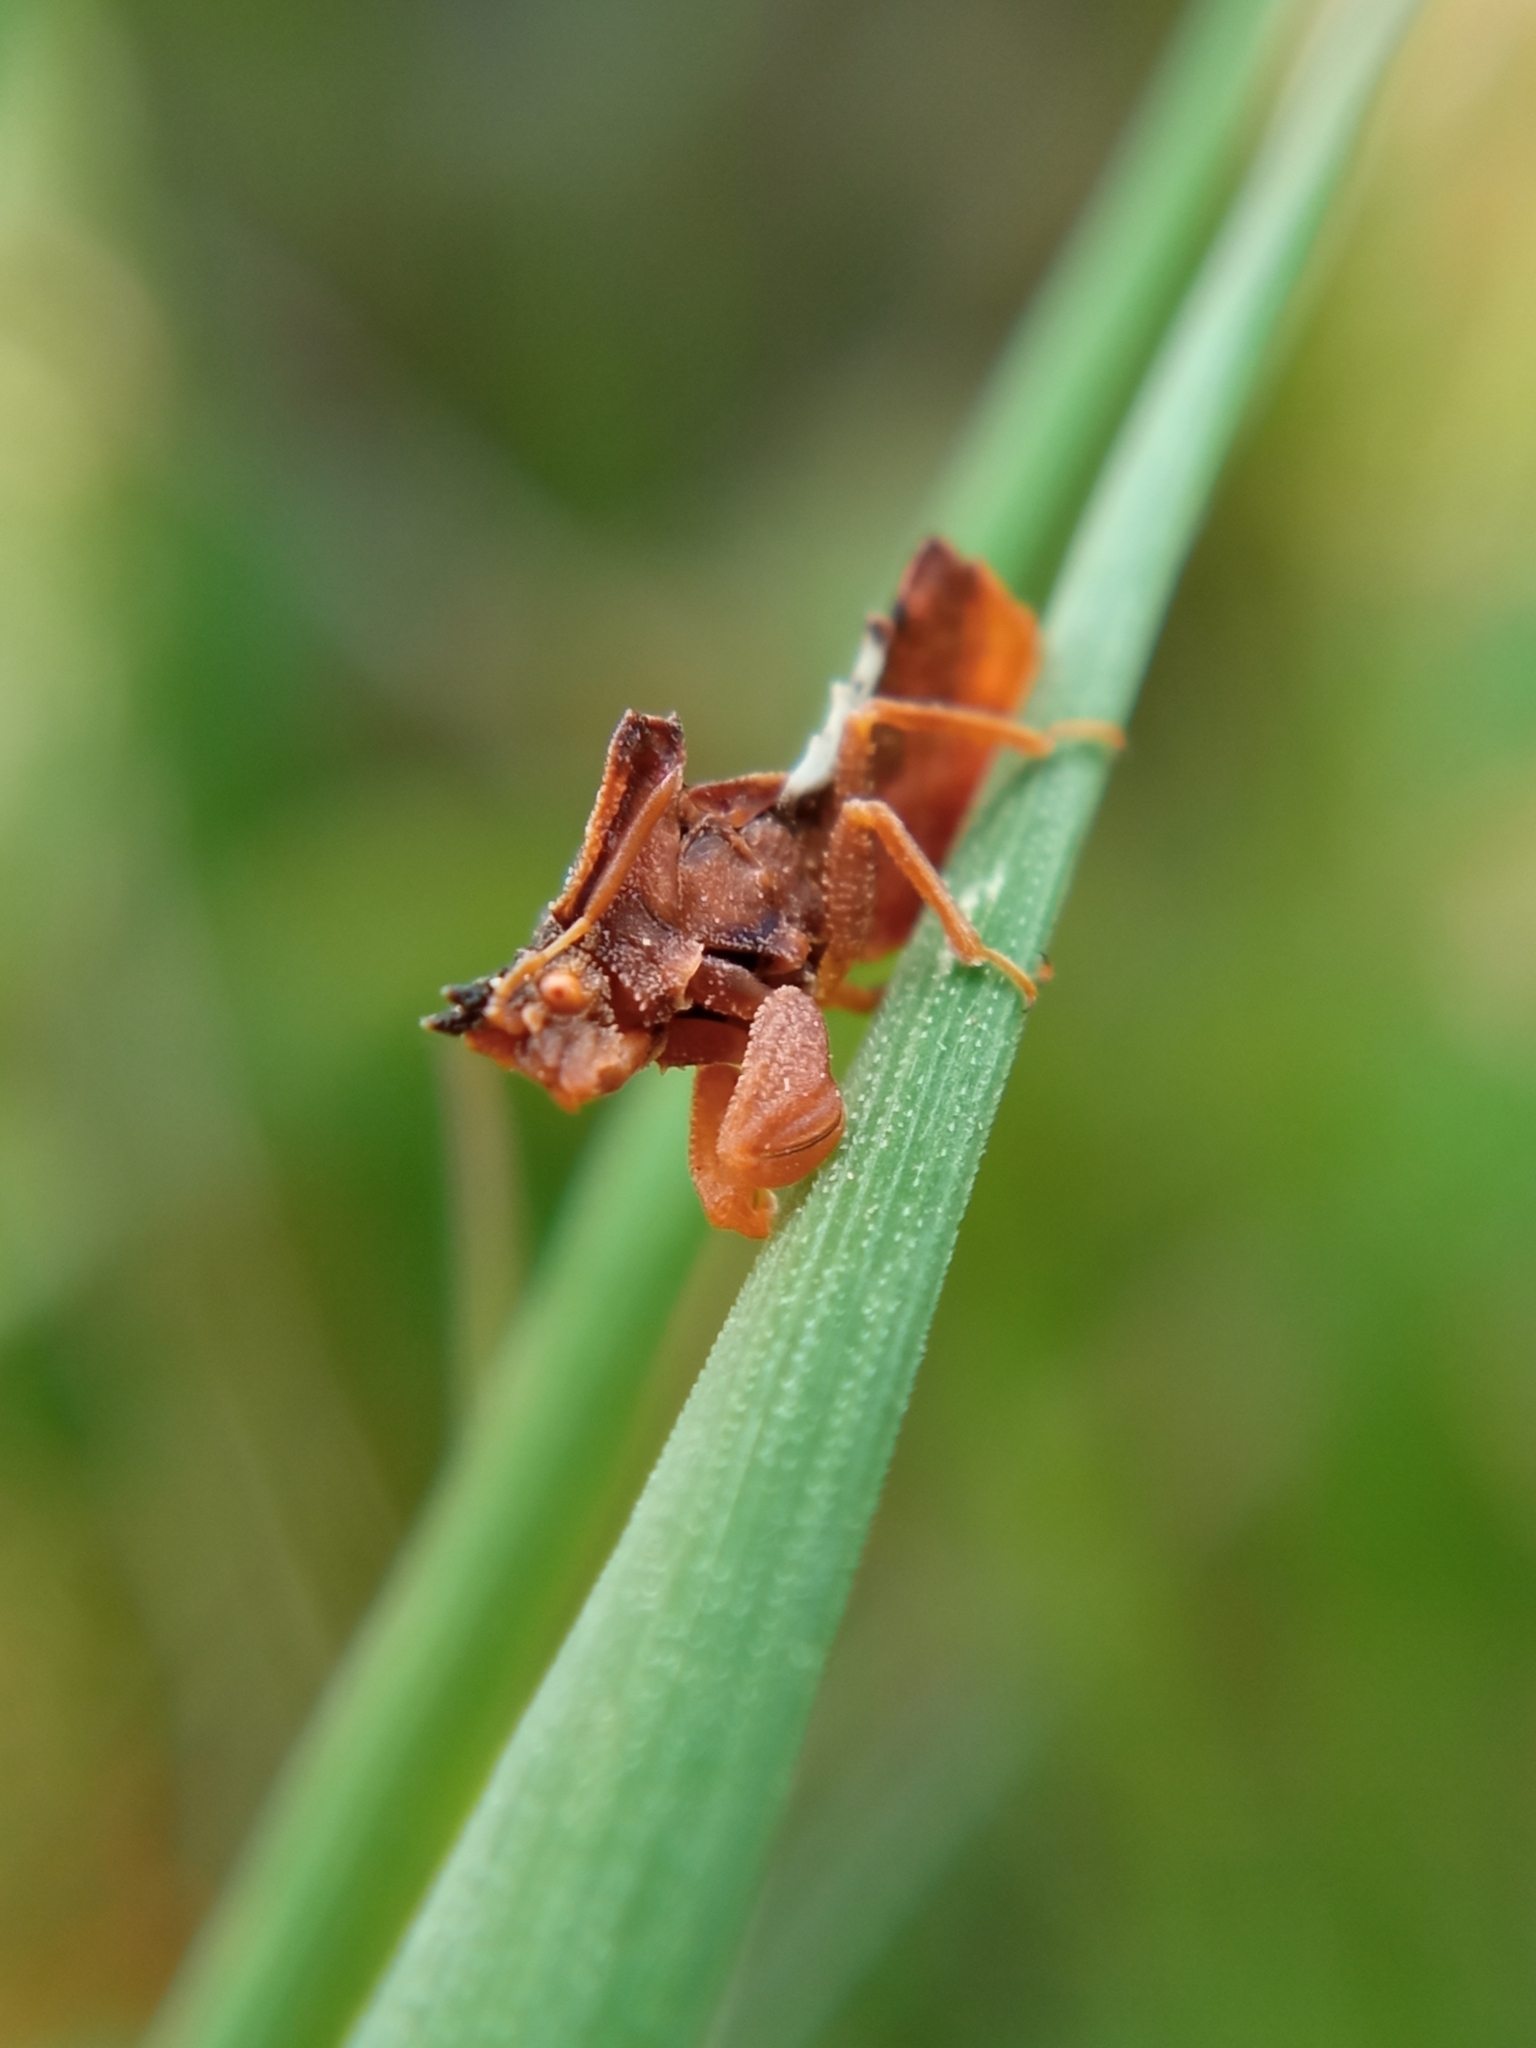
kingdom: Animalia
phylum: Arthropoda
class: Insecta
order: Hemiptera
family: Reduviidae
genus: Phymata
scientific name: Phymata crassipes
